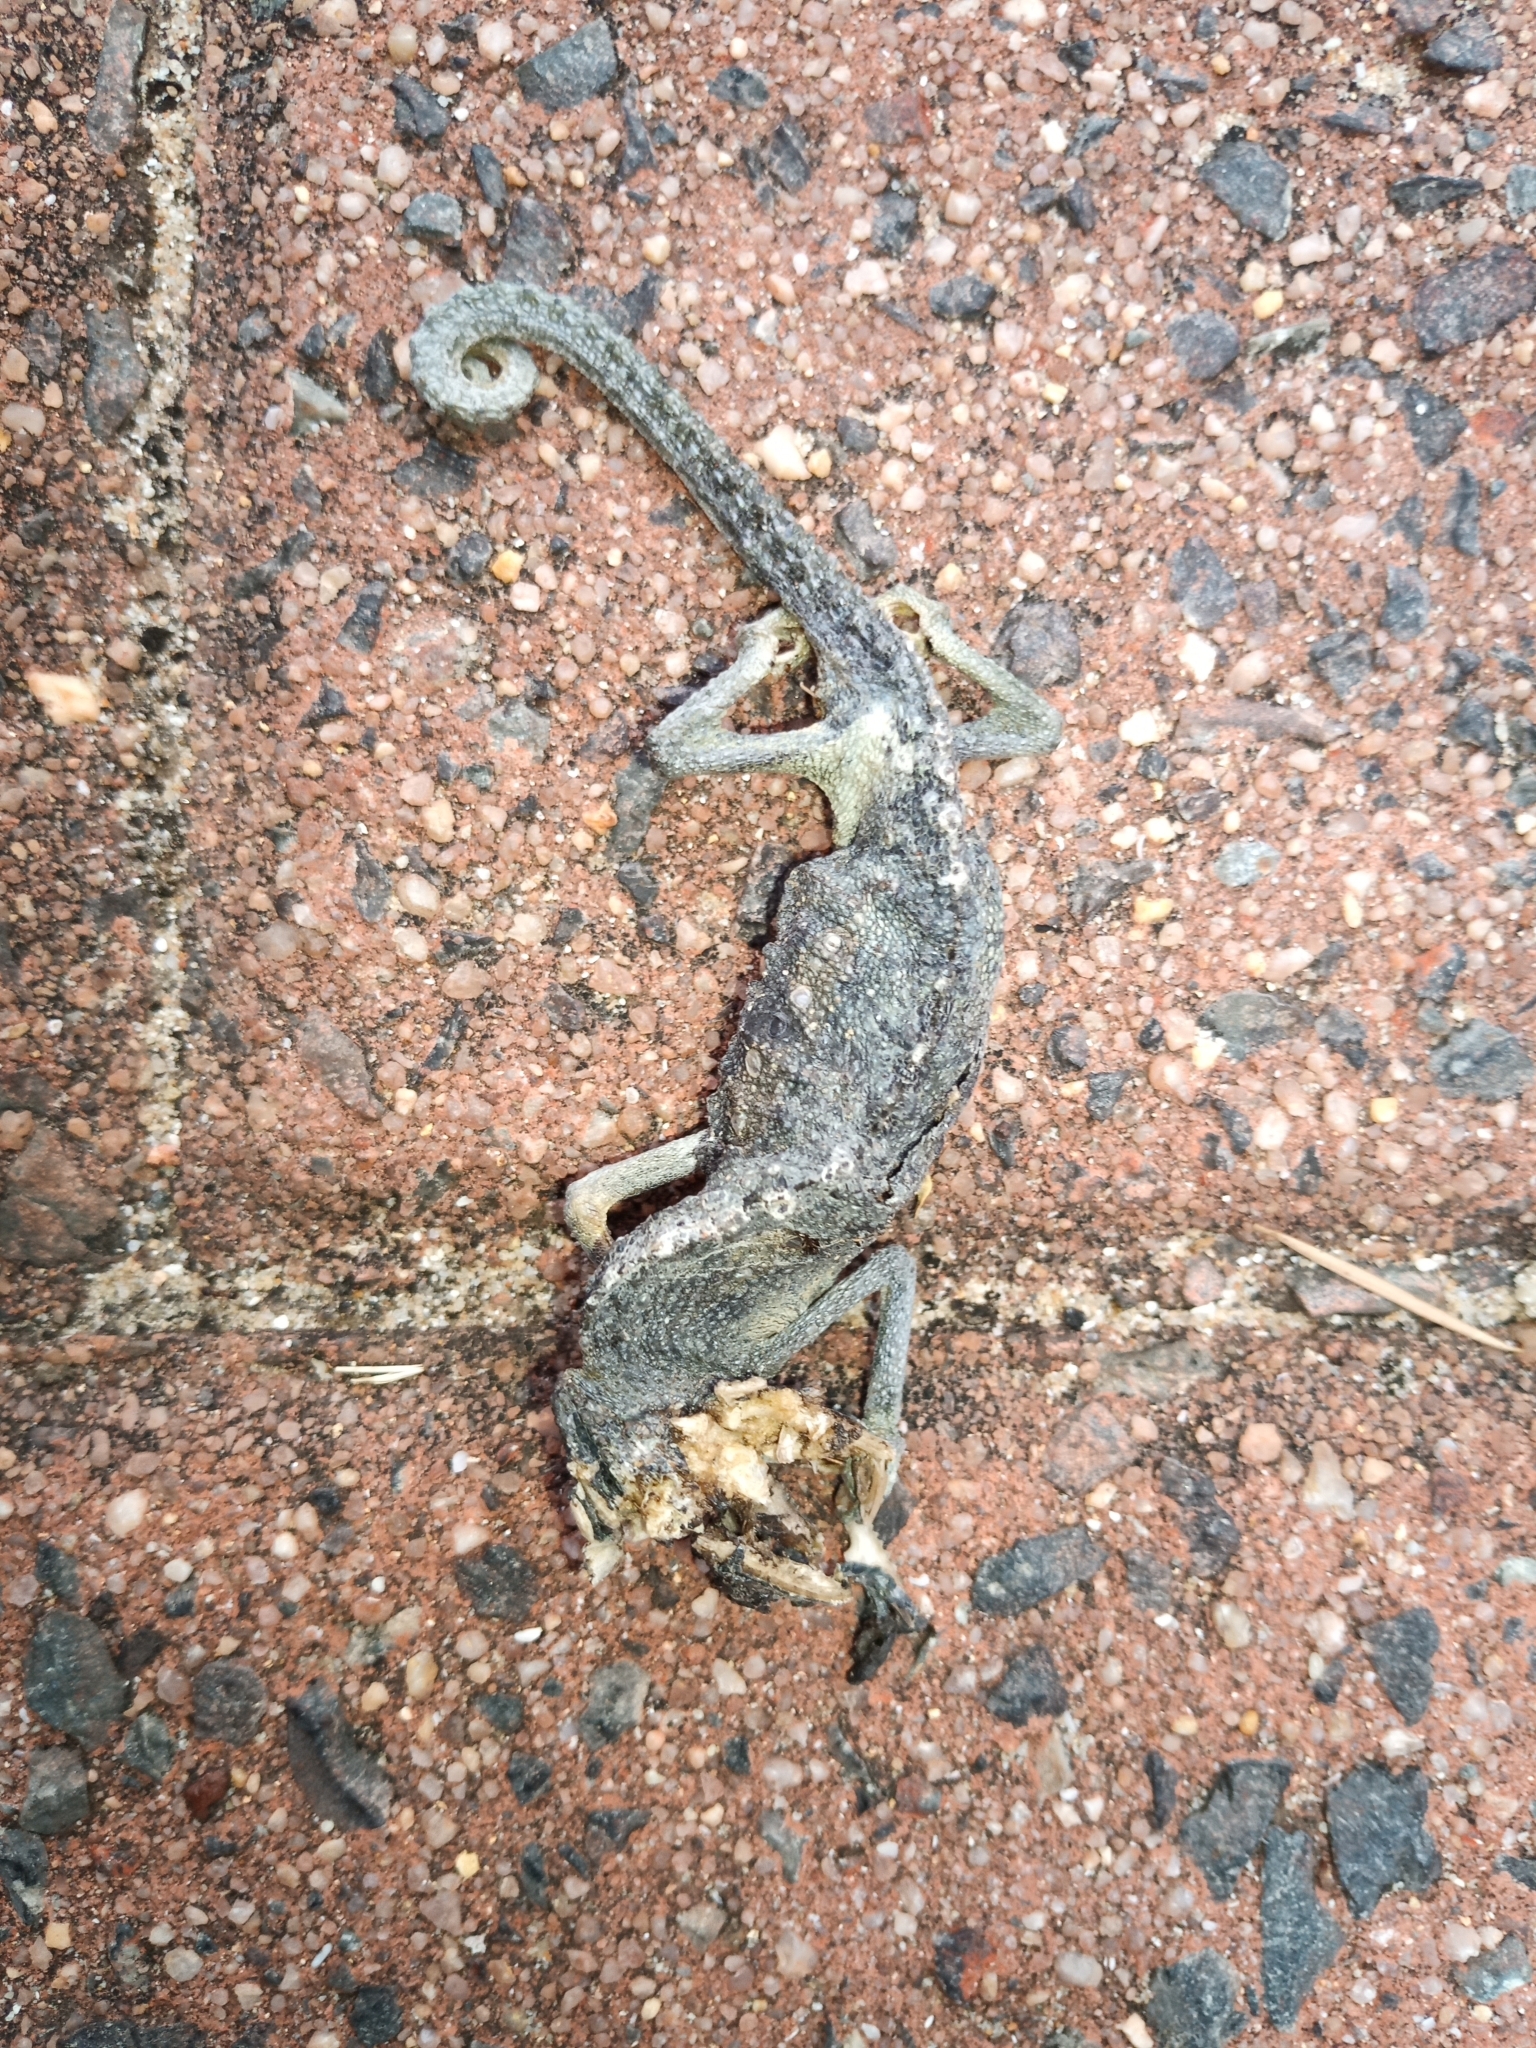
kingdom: Animalia
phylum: Chordata
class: Squamata
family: Chamaeleonidae
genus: Bradypodion
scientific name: Bradypodion pumilum
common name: Cape dwarf chameleon
